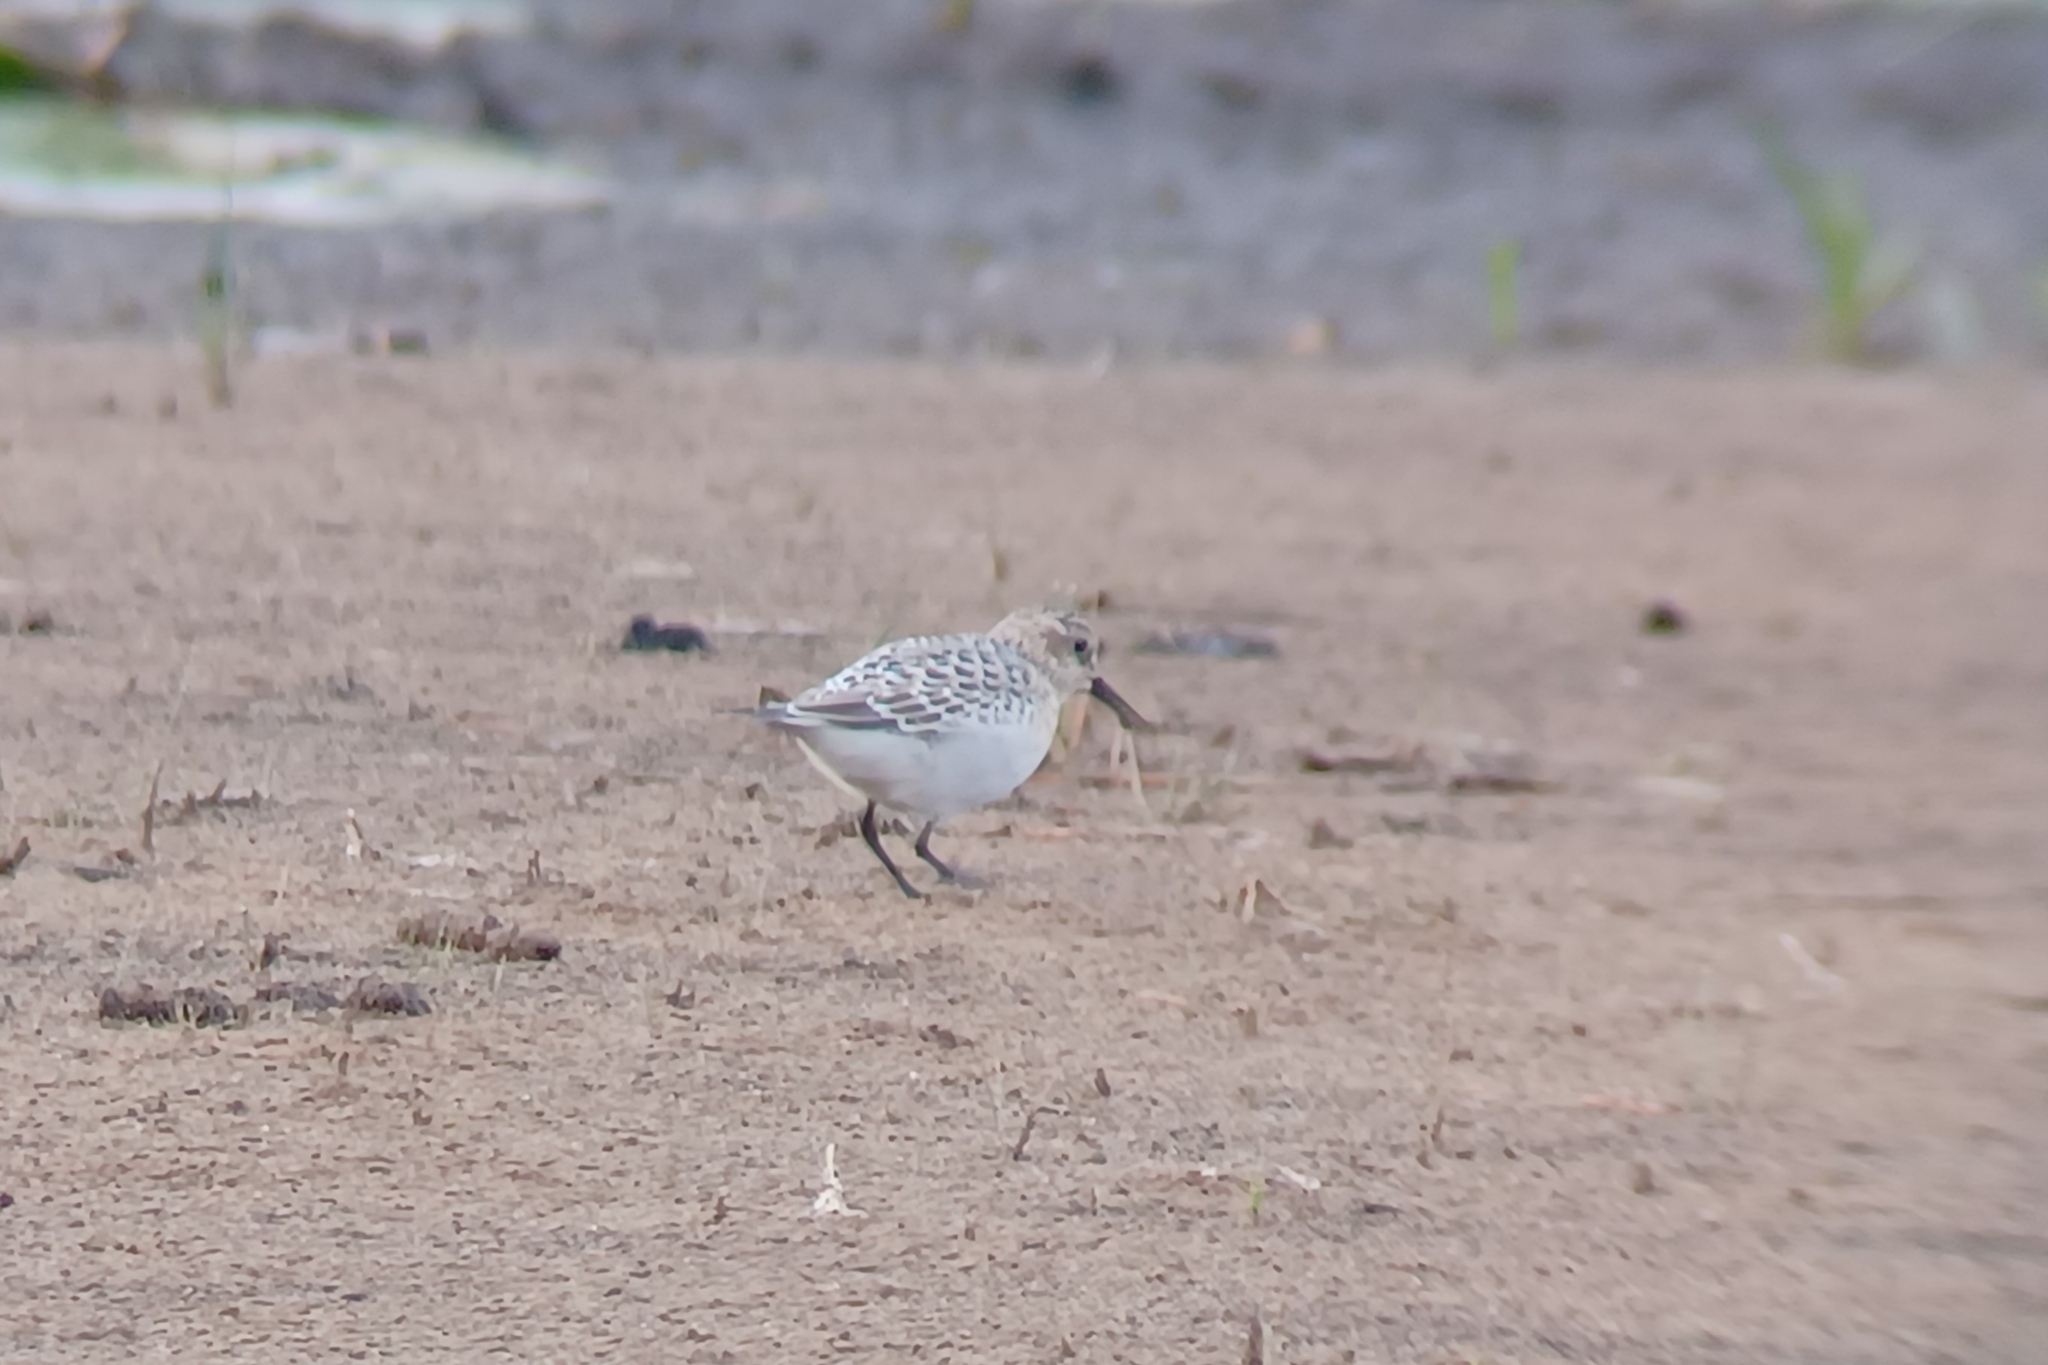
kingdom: Animalia
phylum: Chordata
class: Aves
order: Charadriiformes
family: Scolopacidae
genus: Calidris
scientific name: Calidris bairdii
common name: Baird's sandpiper
